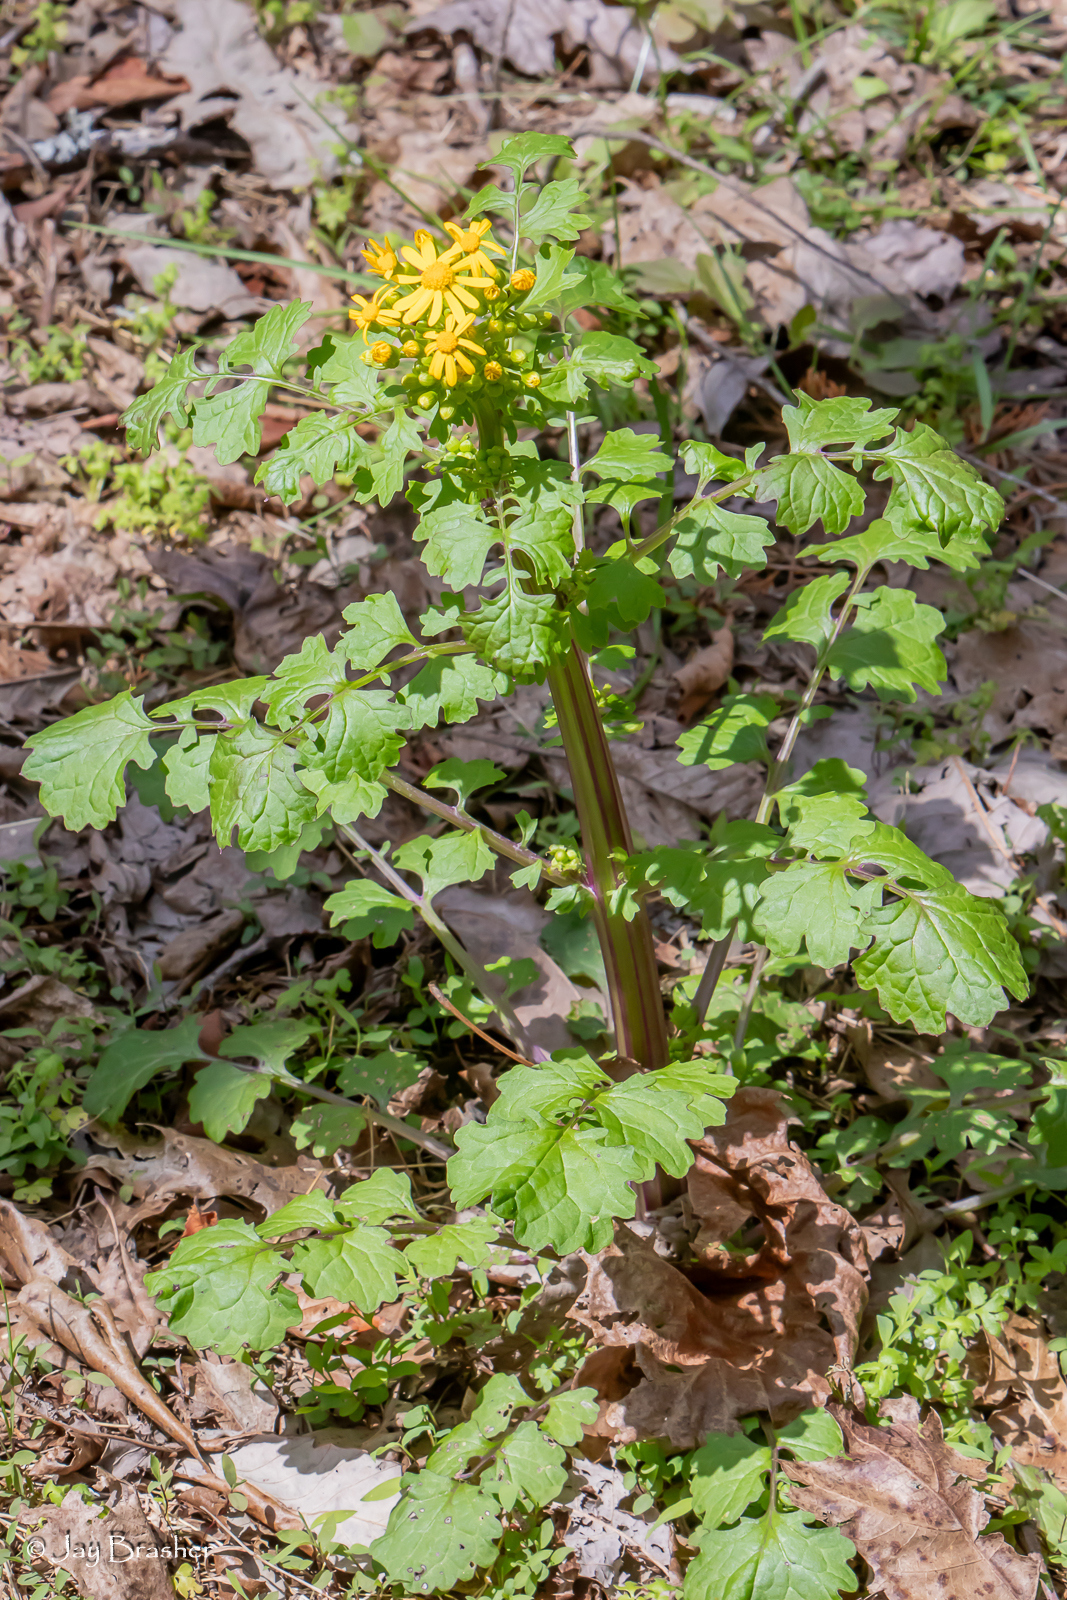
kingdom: Plantae
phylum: Tracheophyta
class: Magnoliopsida
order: Asterales
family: Asteraceae
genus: Packera
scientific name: Packera glabella
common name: Butterweed
